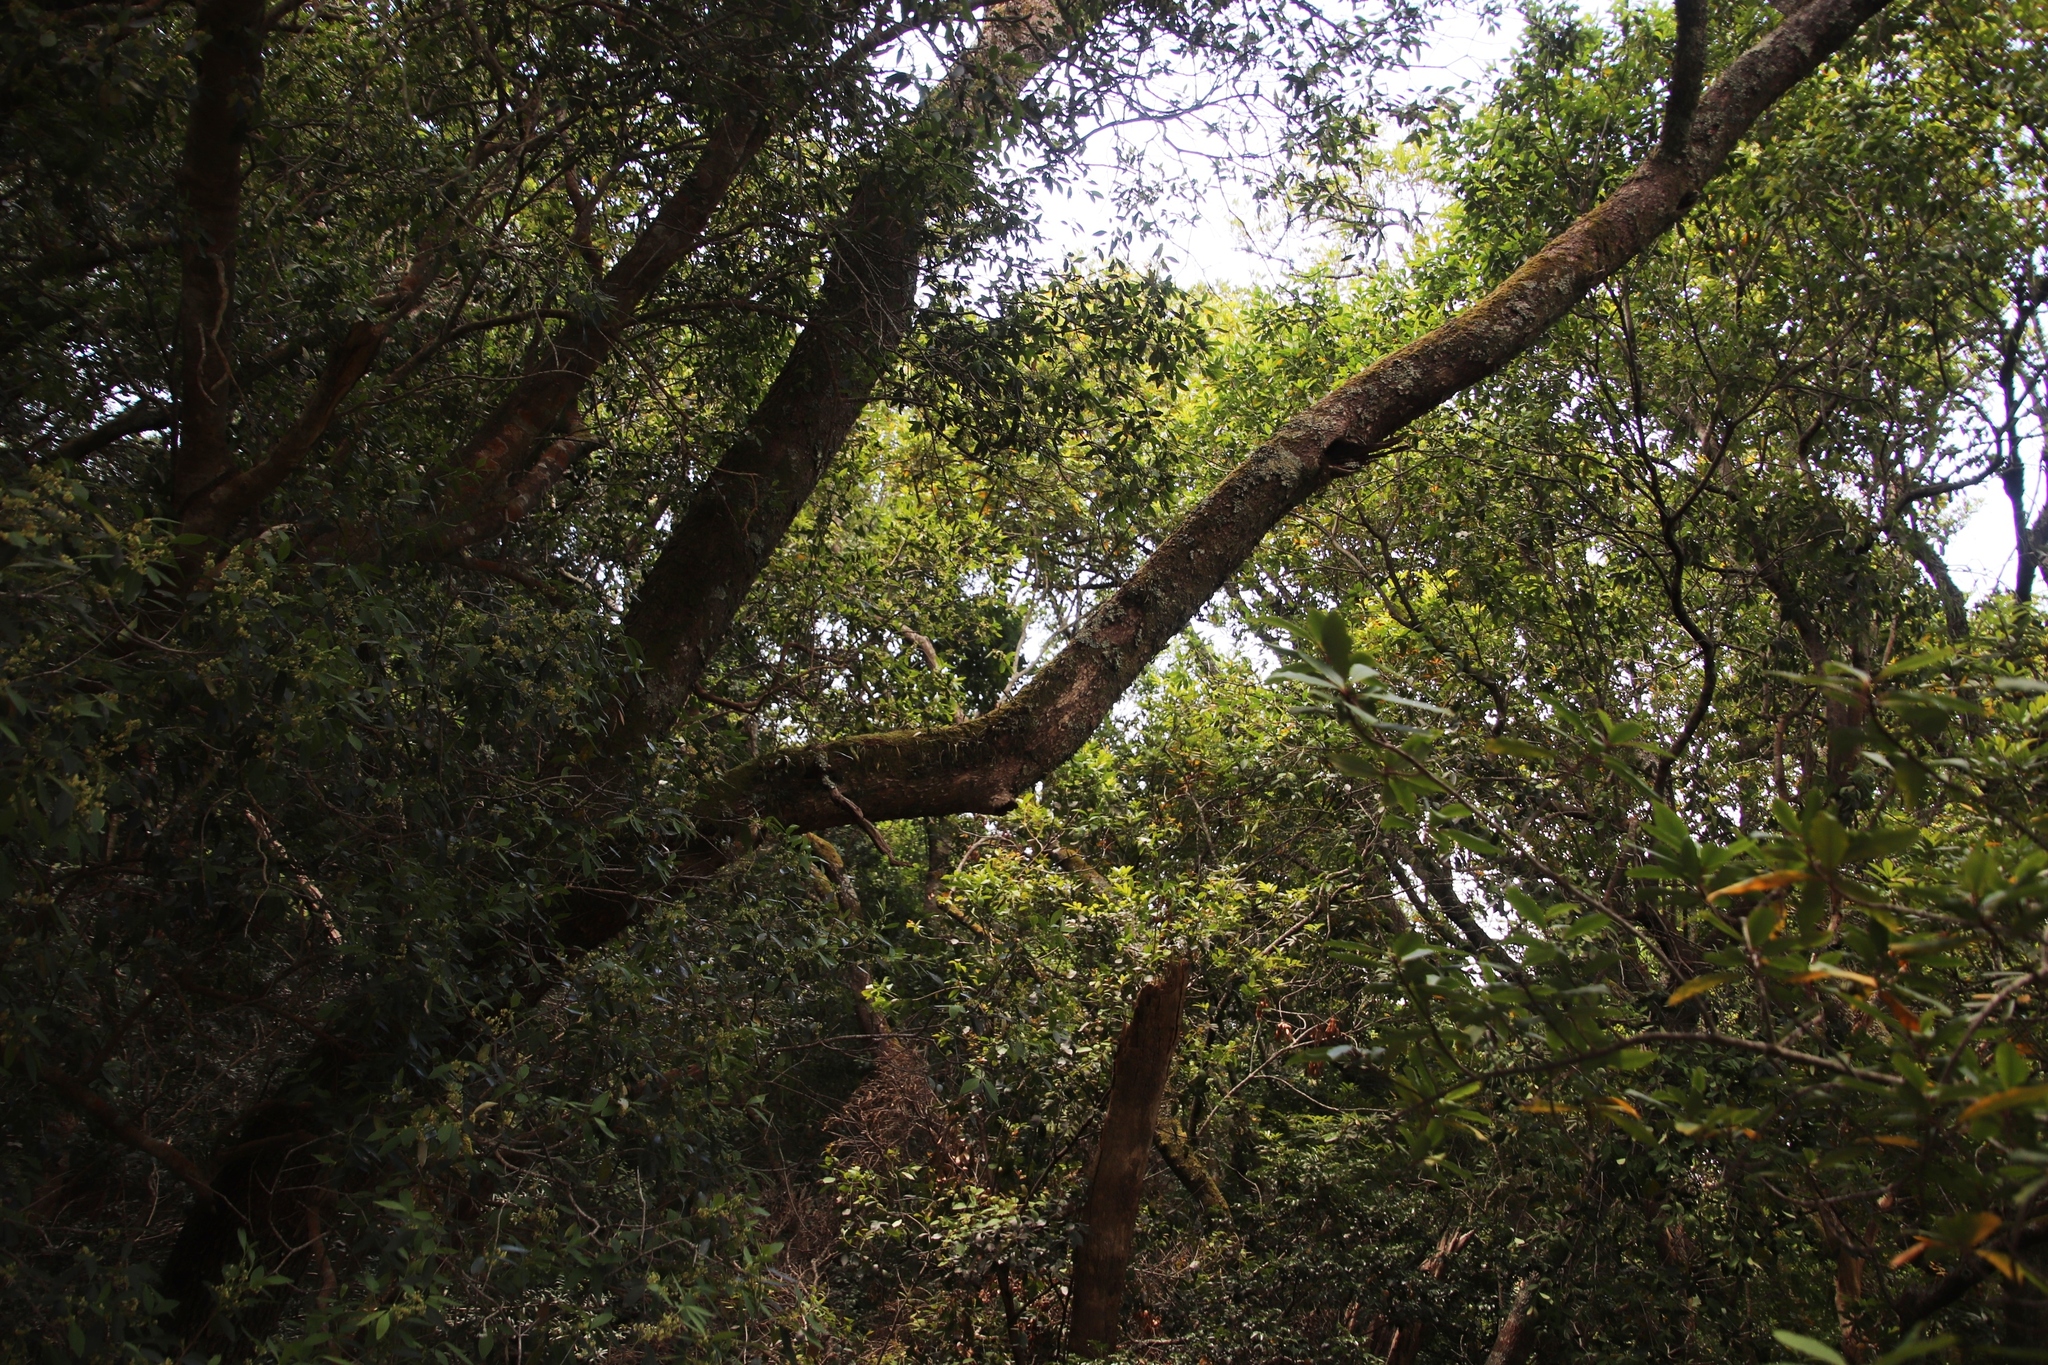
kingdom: Plantae
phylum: Tracheophyta
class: Polypodiopsida
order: Polypodiales
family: Polypodiaceae
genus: Pleopeltis
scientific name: Pleopeltis macrocarpa
